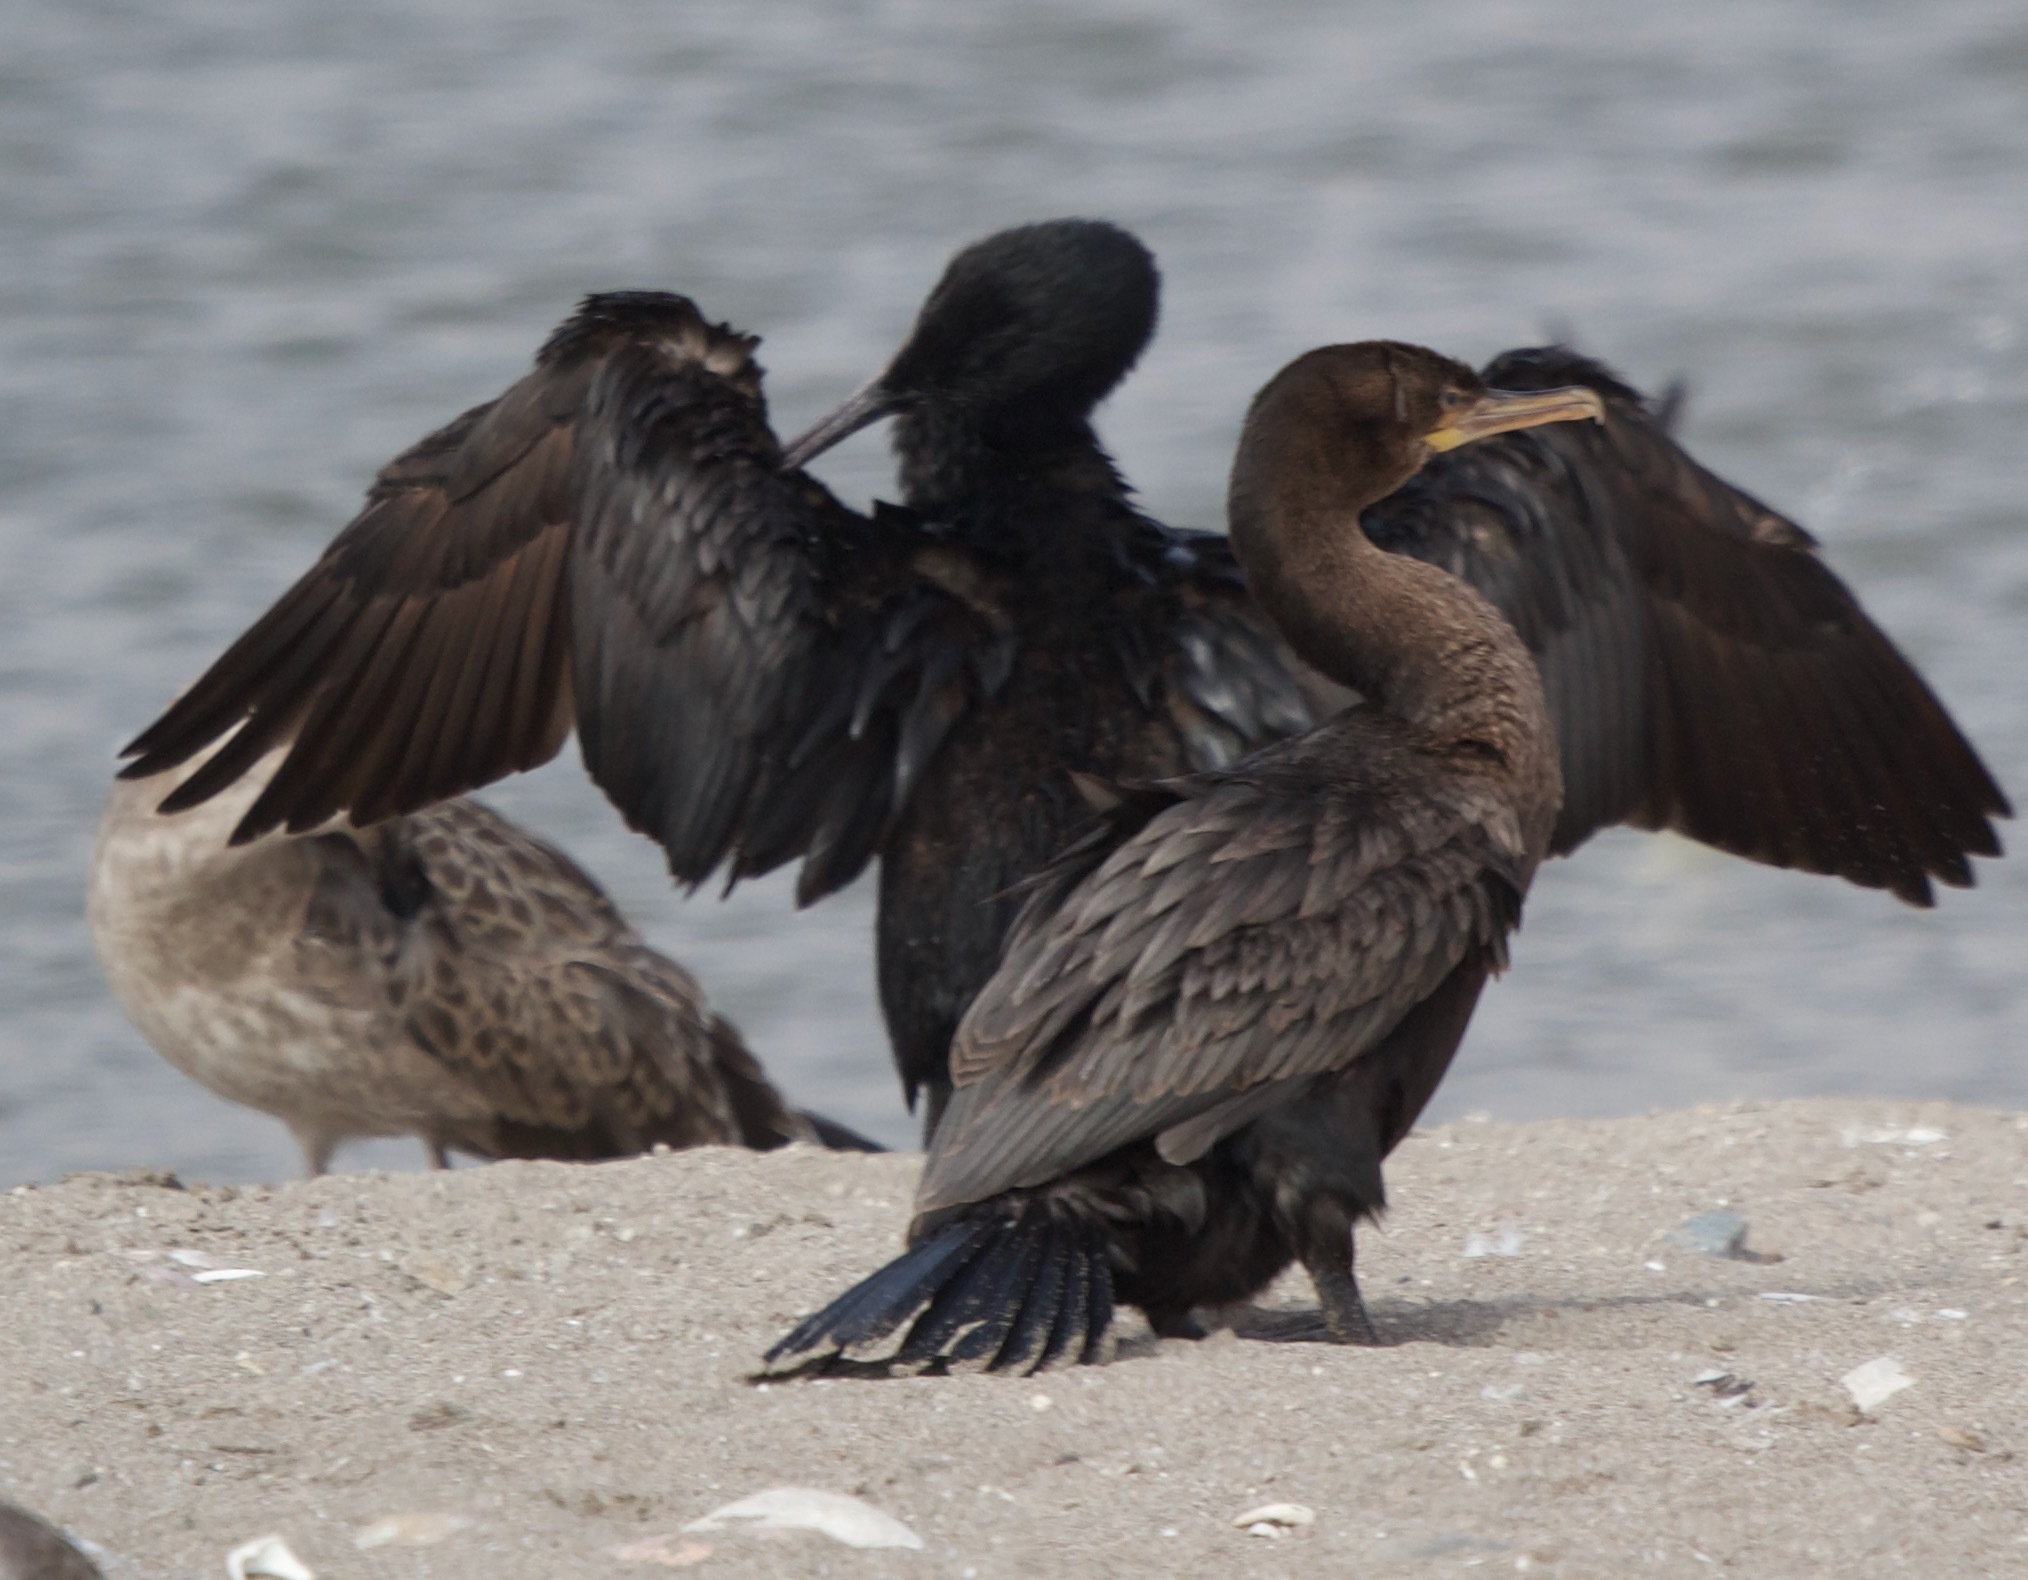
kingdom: Animalia
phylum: Chordata
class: Aves
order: Suliformes
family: Phalacrocoracidae
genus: Phalacrocorax
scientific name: Phalacrocorax brasilianus
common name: Neotropic cormorant
